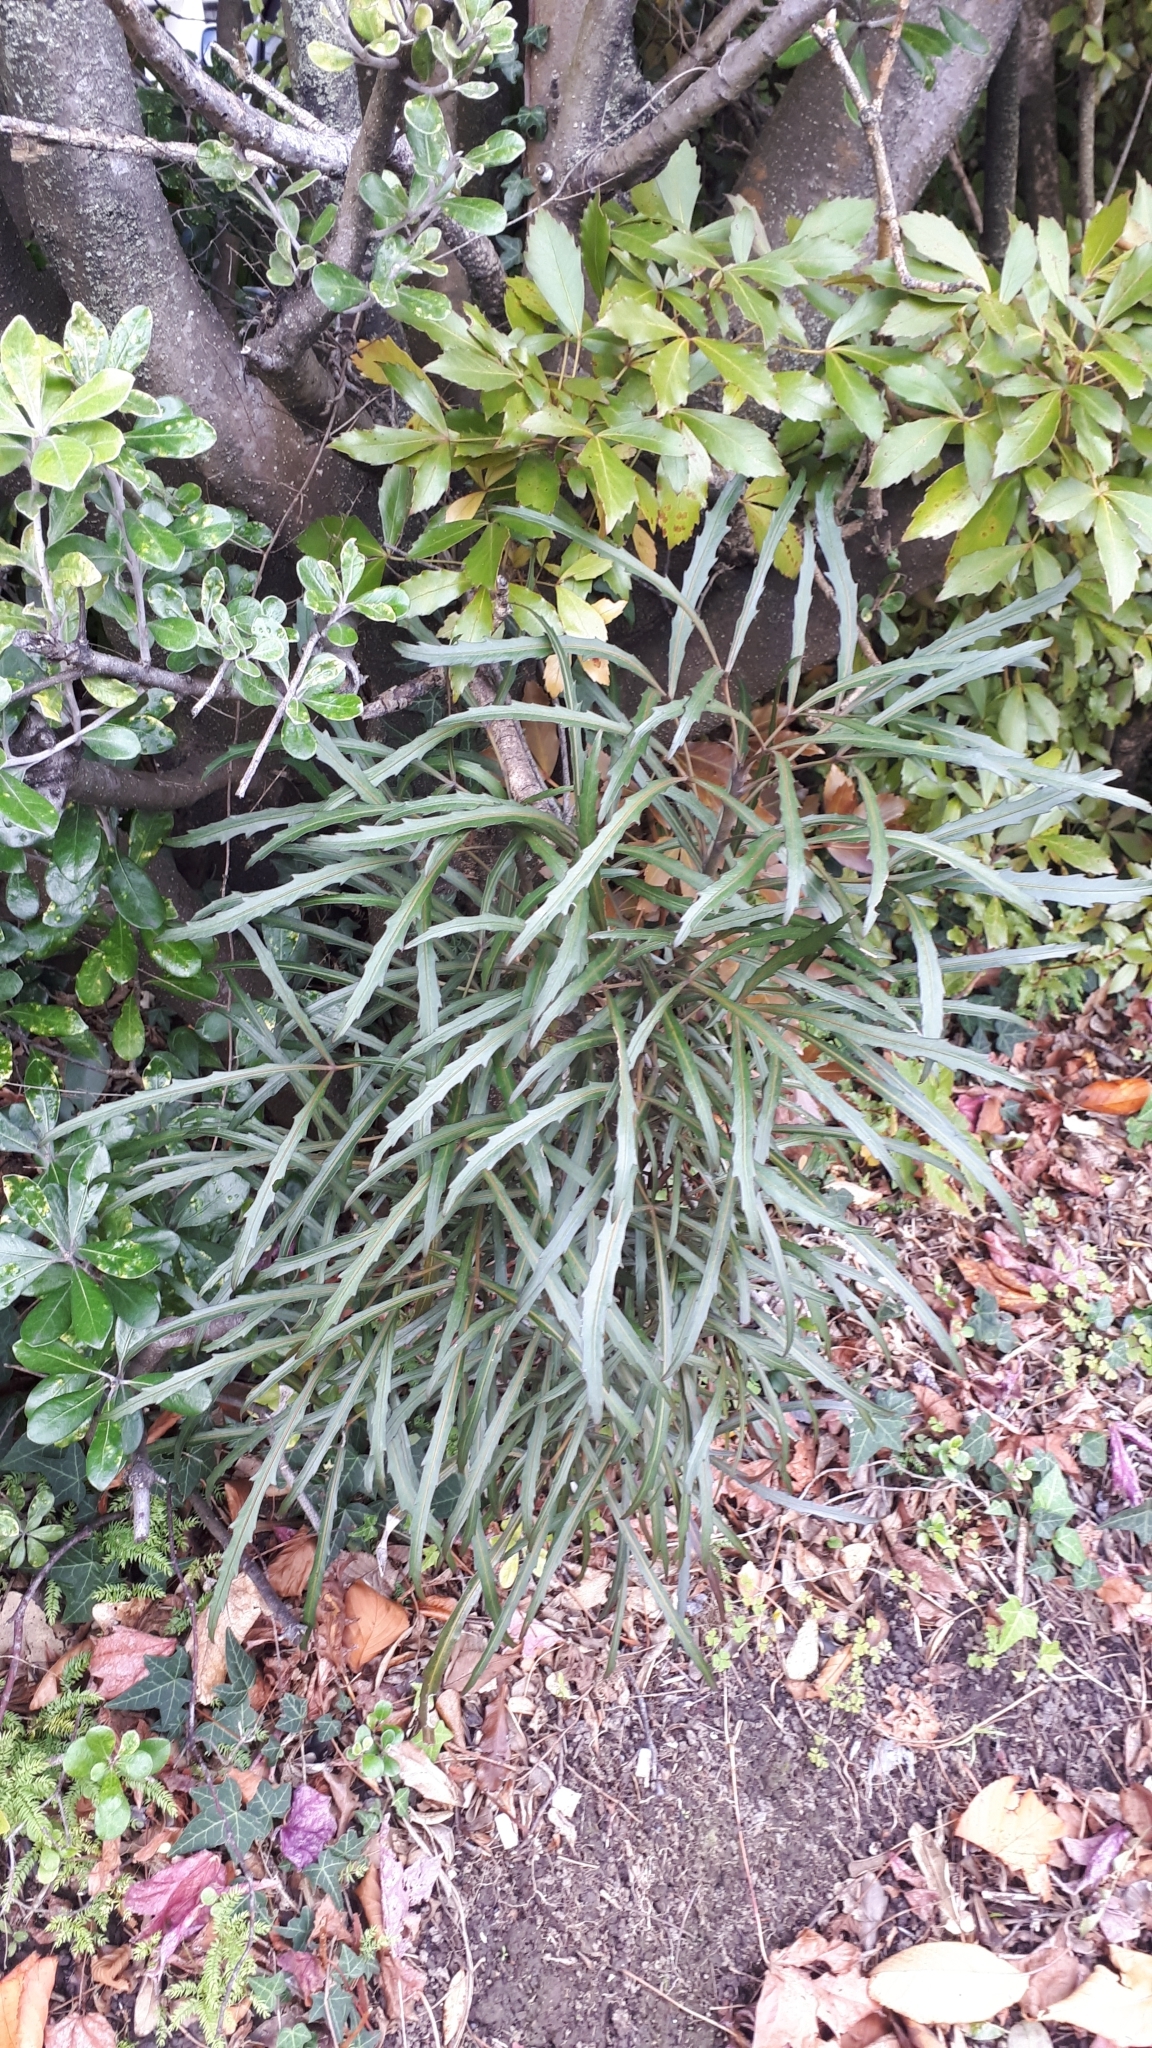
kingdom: Plantae
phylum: Tracheophyta
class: Magnoliopsida
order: Apiales
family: Araliaceae
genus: Pseudopanax
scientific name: Pseudopanax
